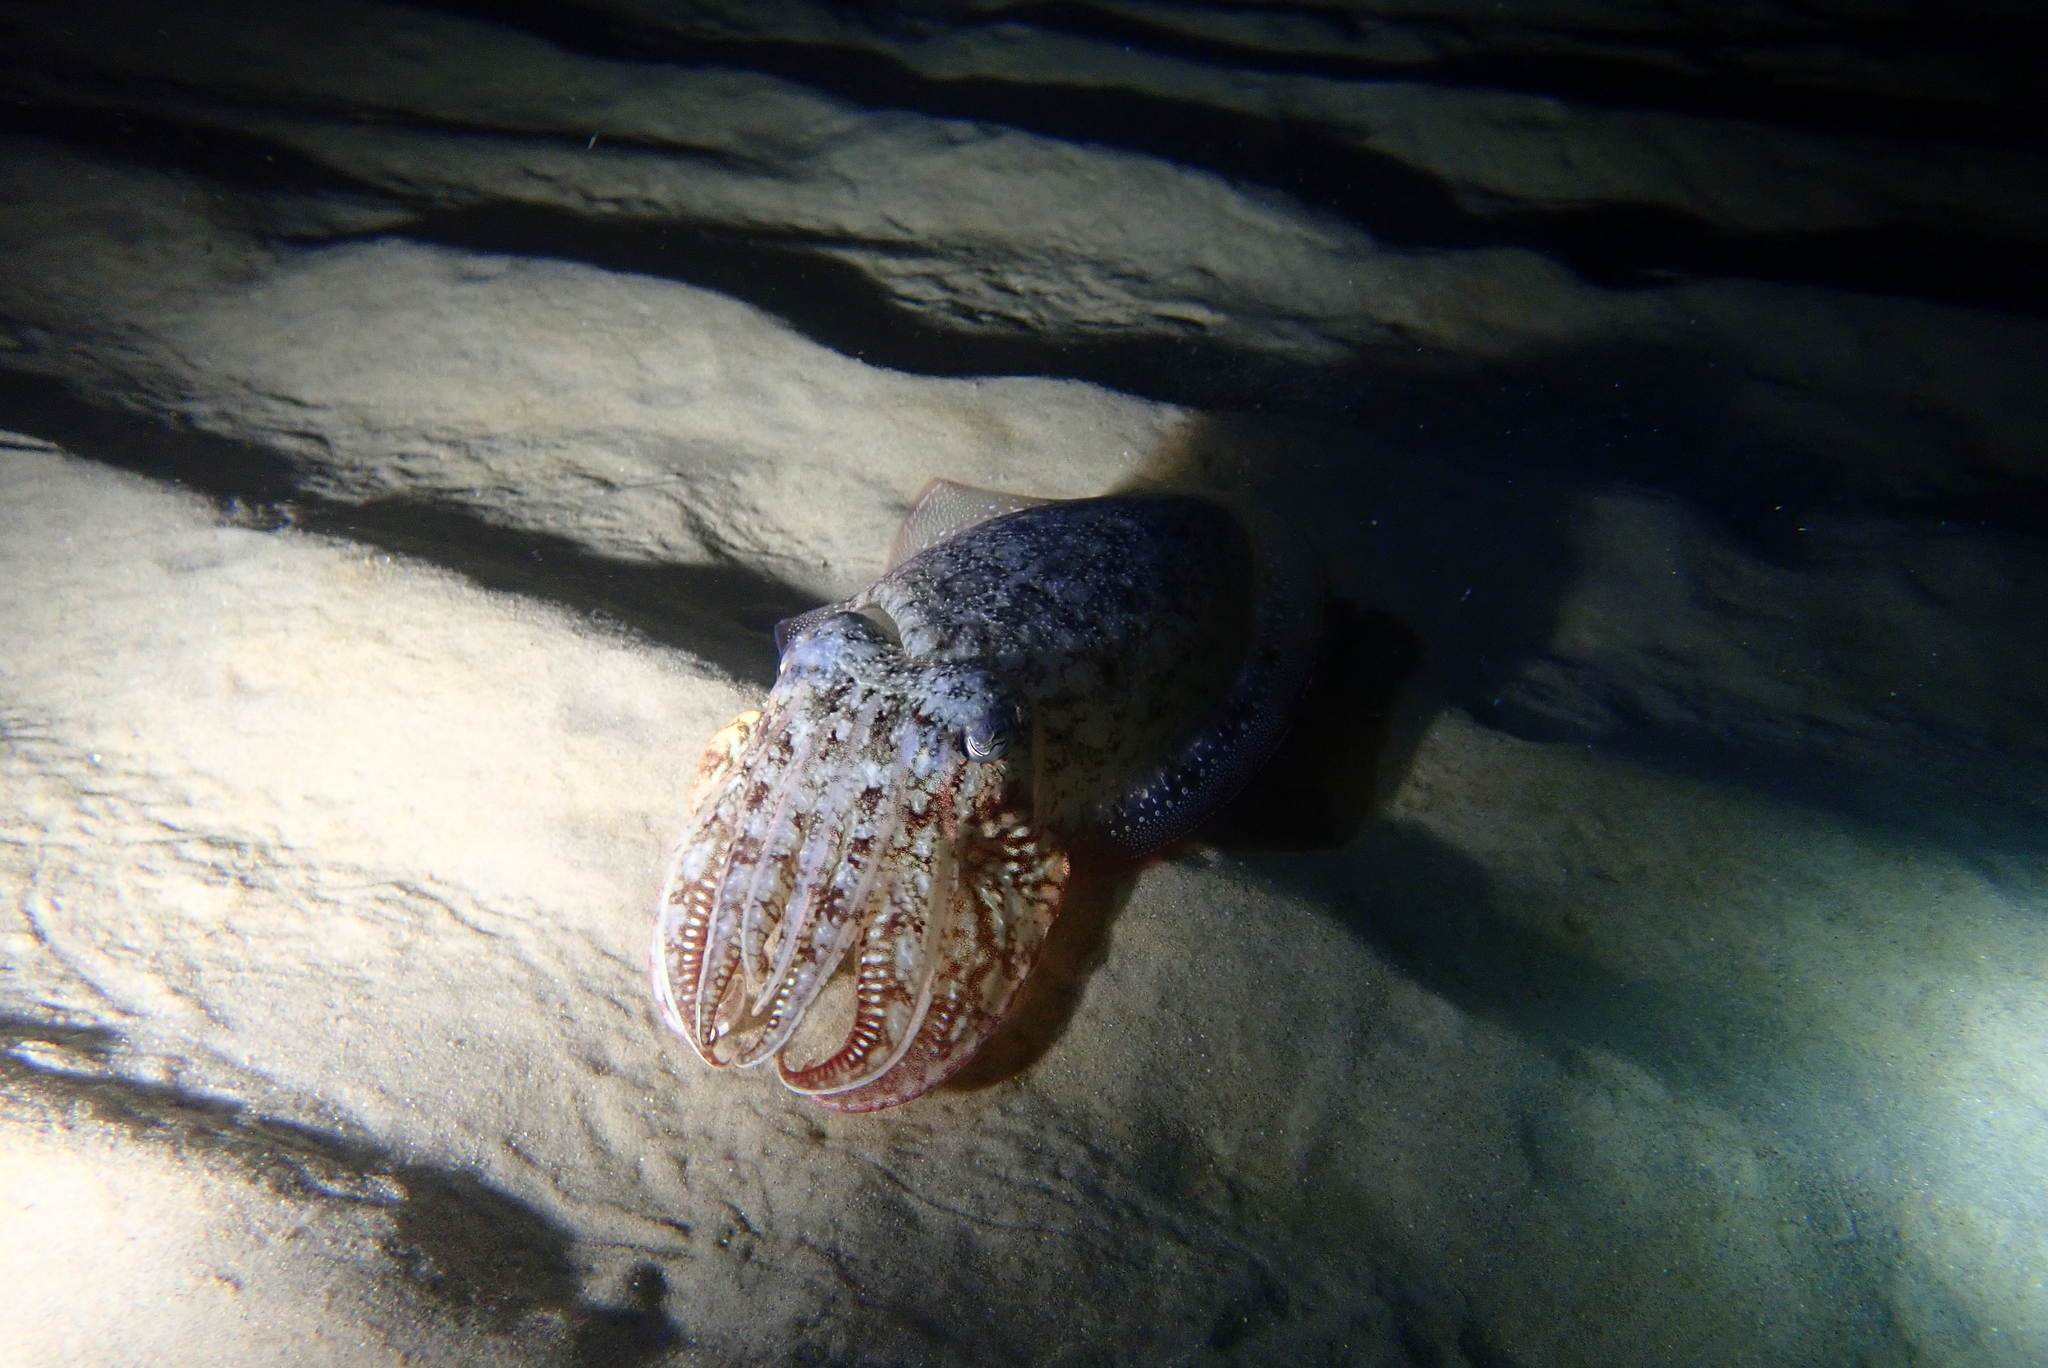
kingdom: Animalia
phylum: Mollusca
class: Cephalopoda
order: Sepiida
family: Sepiidae
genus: Sepia
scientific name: Sepia officinalis
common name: Common cuttlefish
